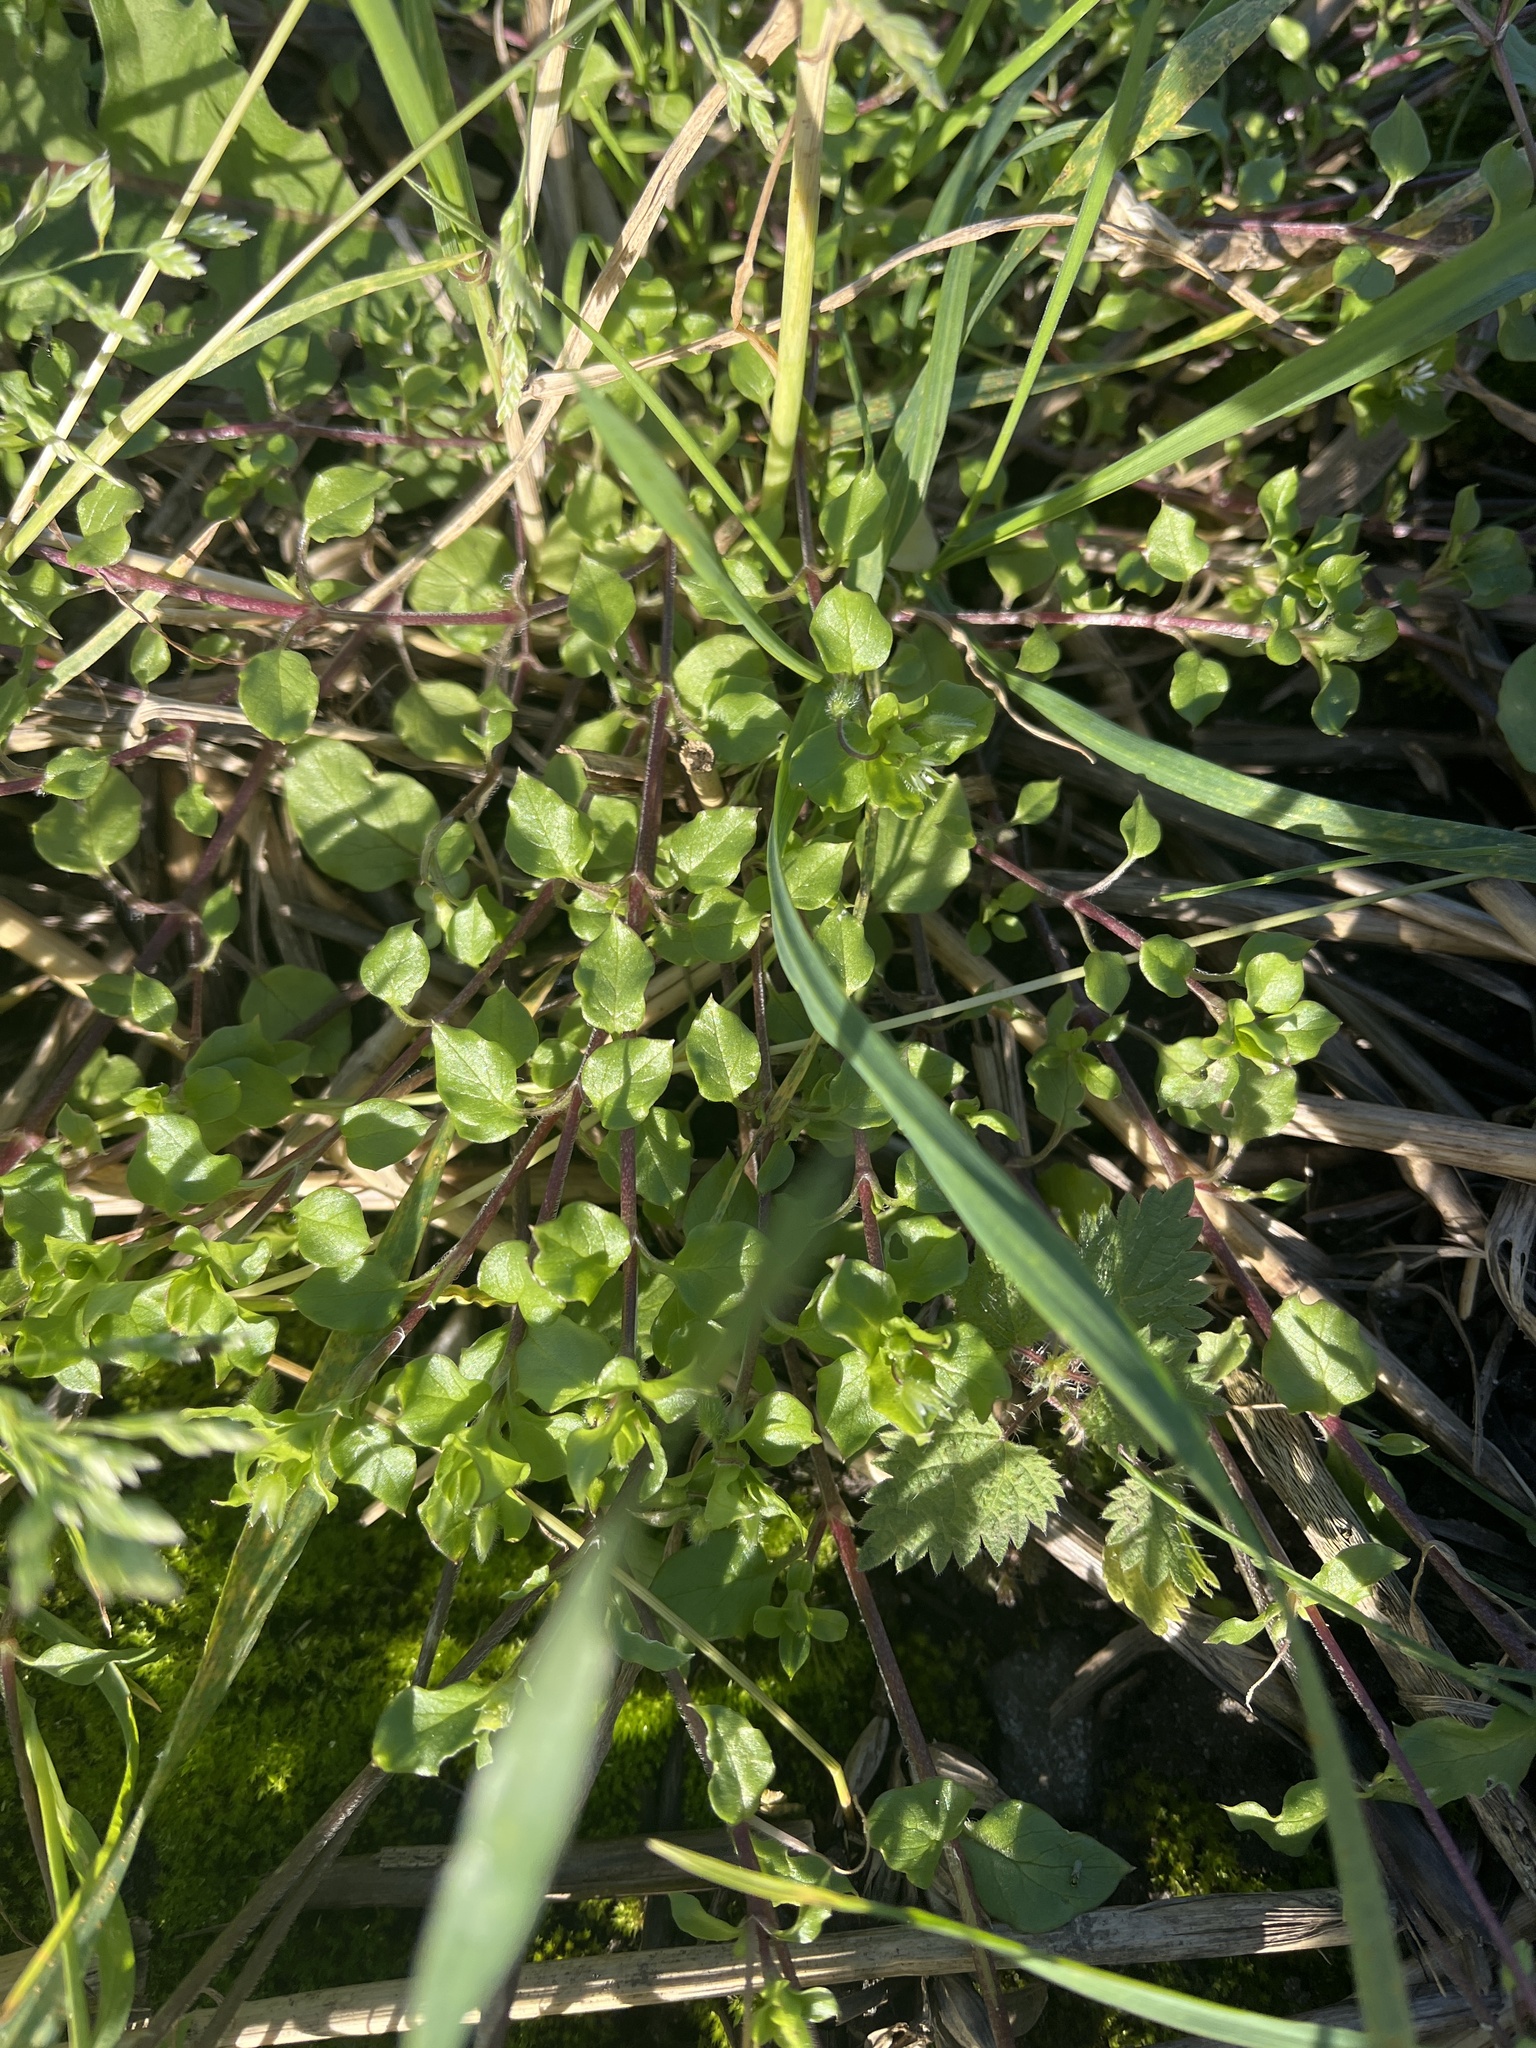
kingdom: Plantae
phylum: Tracheophyta
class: Magnoliopsida
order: Caryophyllales
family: Caryophyllaceae
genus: Stellaria
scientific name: Stellaria media
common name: Common chickweed
